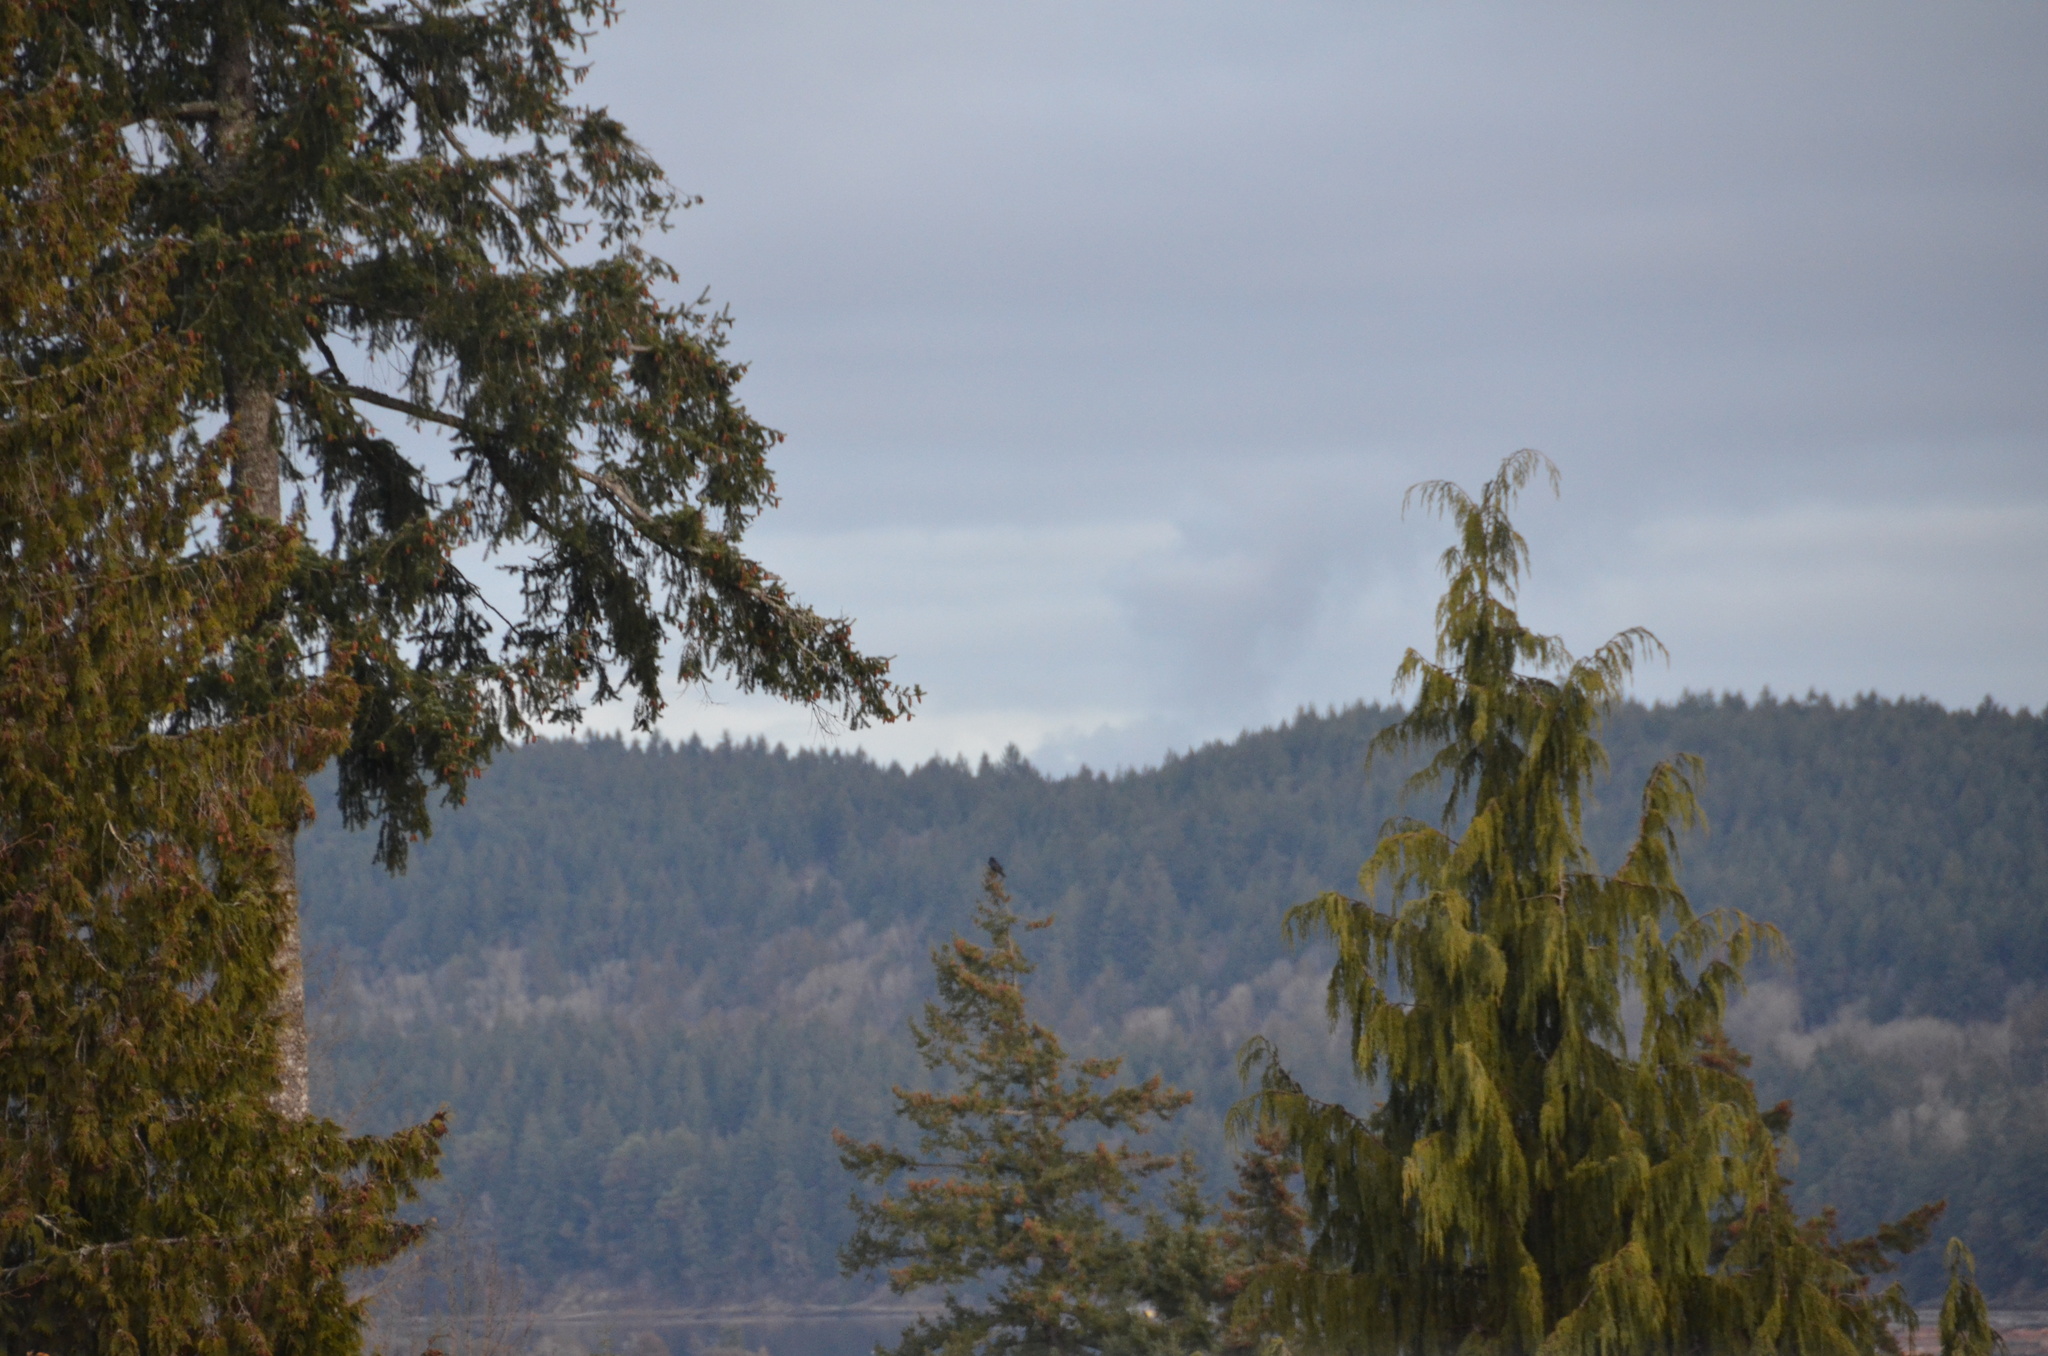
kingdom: Animalia
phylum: Chordata
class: Aves
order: Passeriformes
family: Corvidae
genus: Corvus
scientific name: Corvus corax
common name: Common raven
